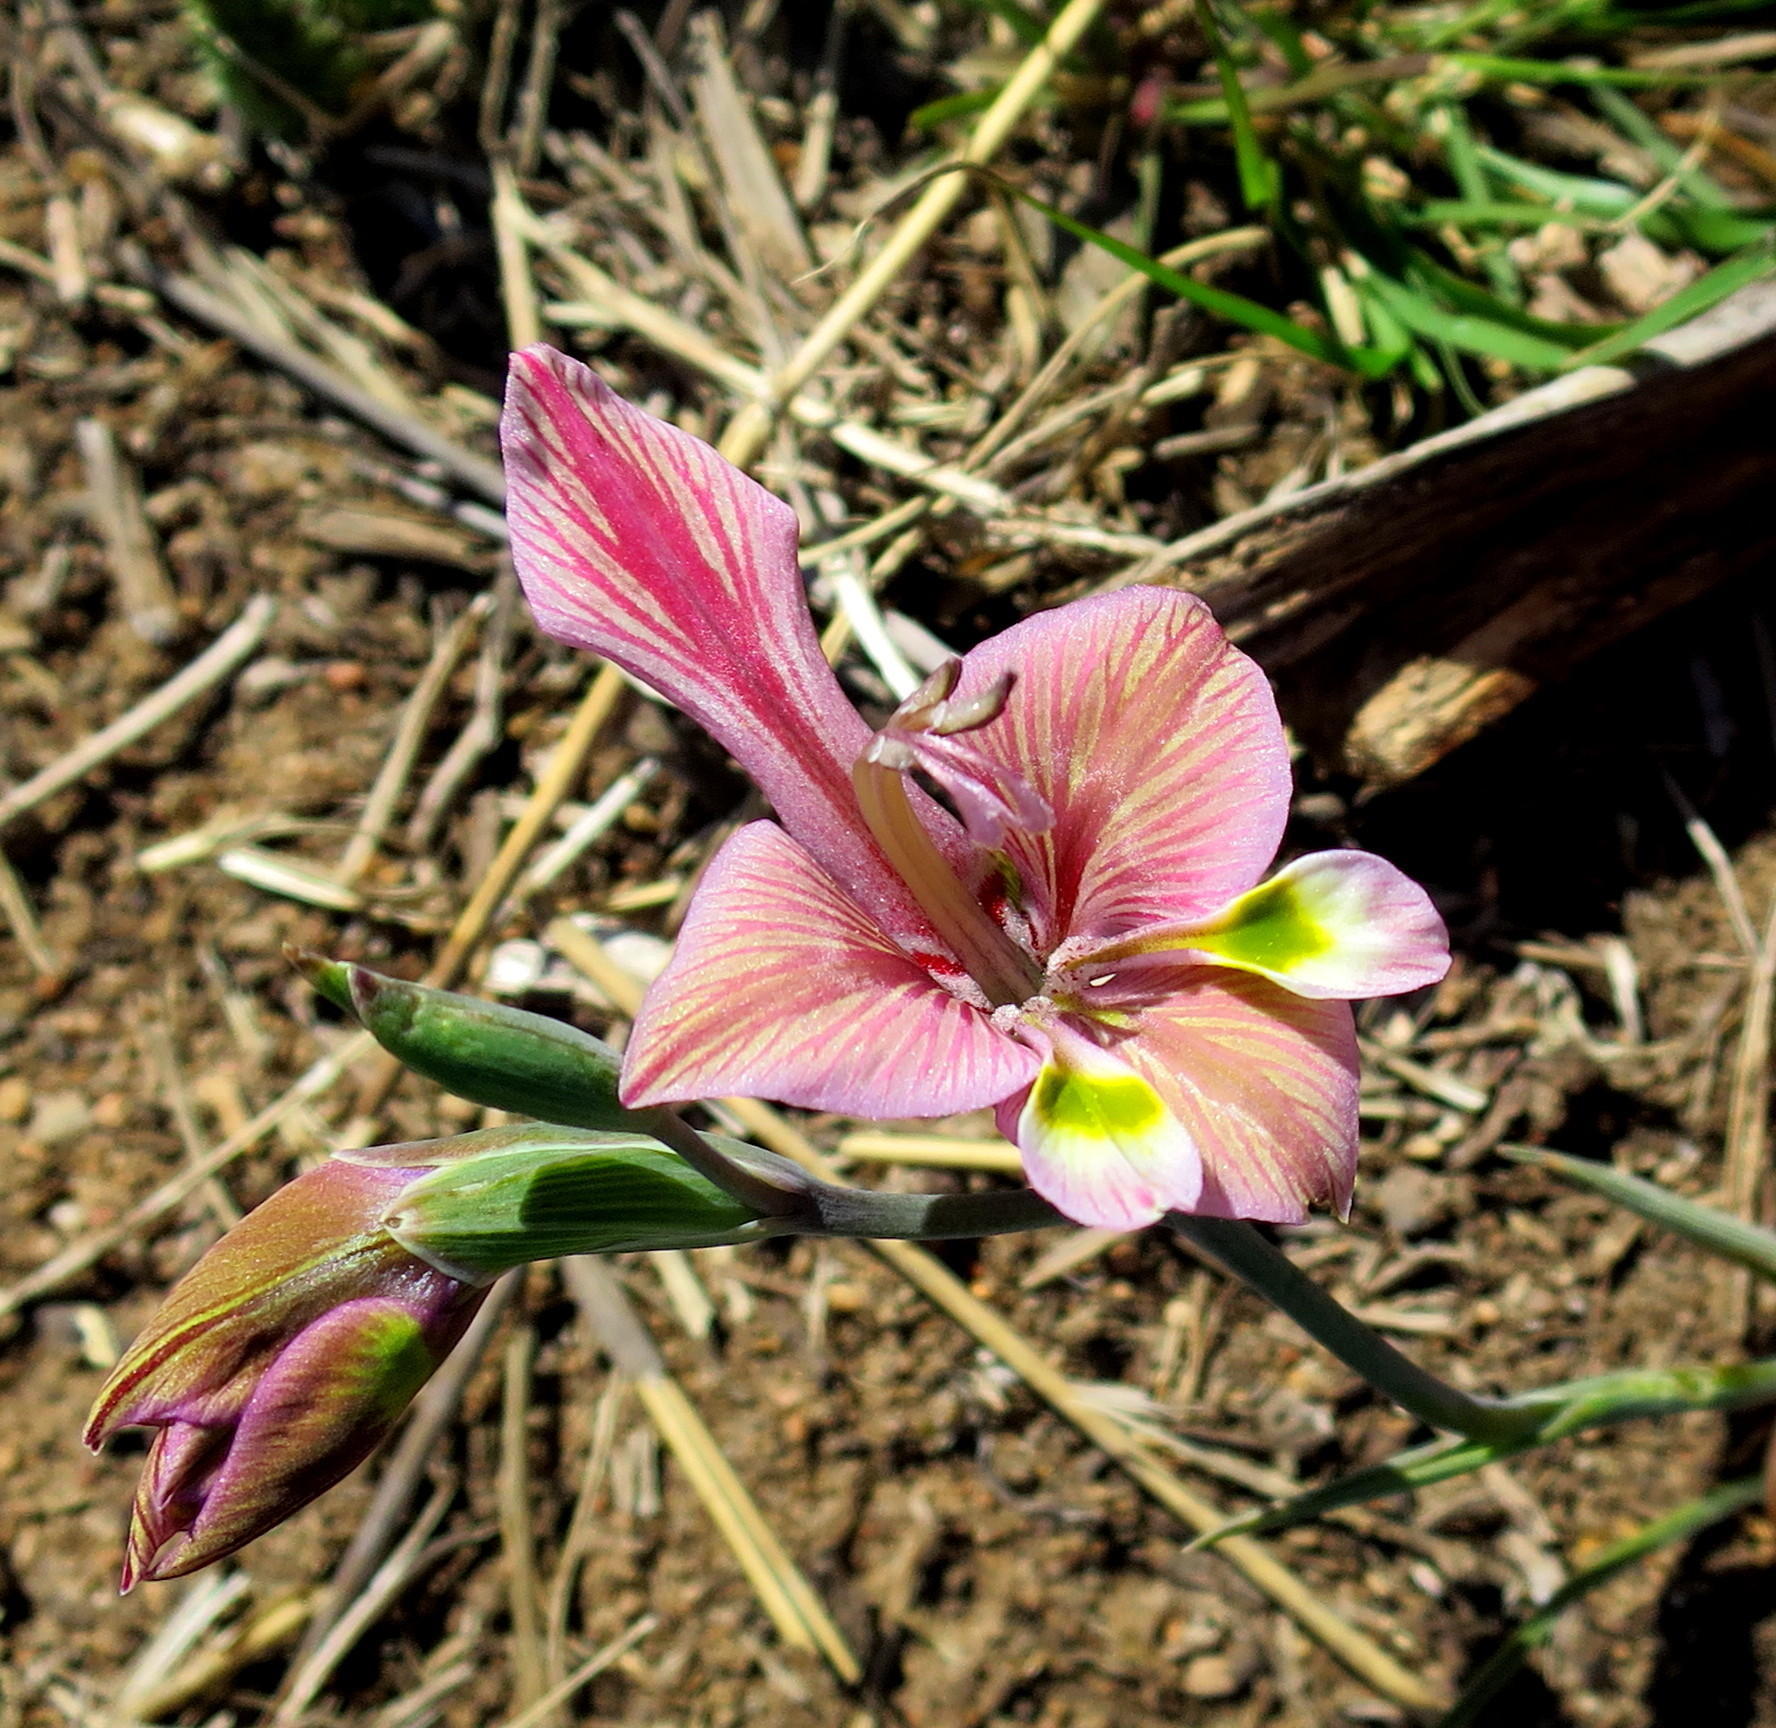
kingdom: Plantae
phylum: Tracheophyta
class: Liliopsida
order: Asparagales
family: Iridaceae
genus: Gladiolus
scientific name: Gladiolus virescens
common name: Yellow kalkoentjie
